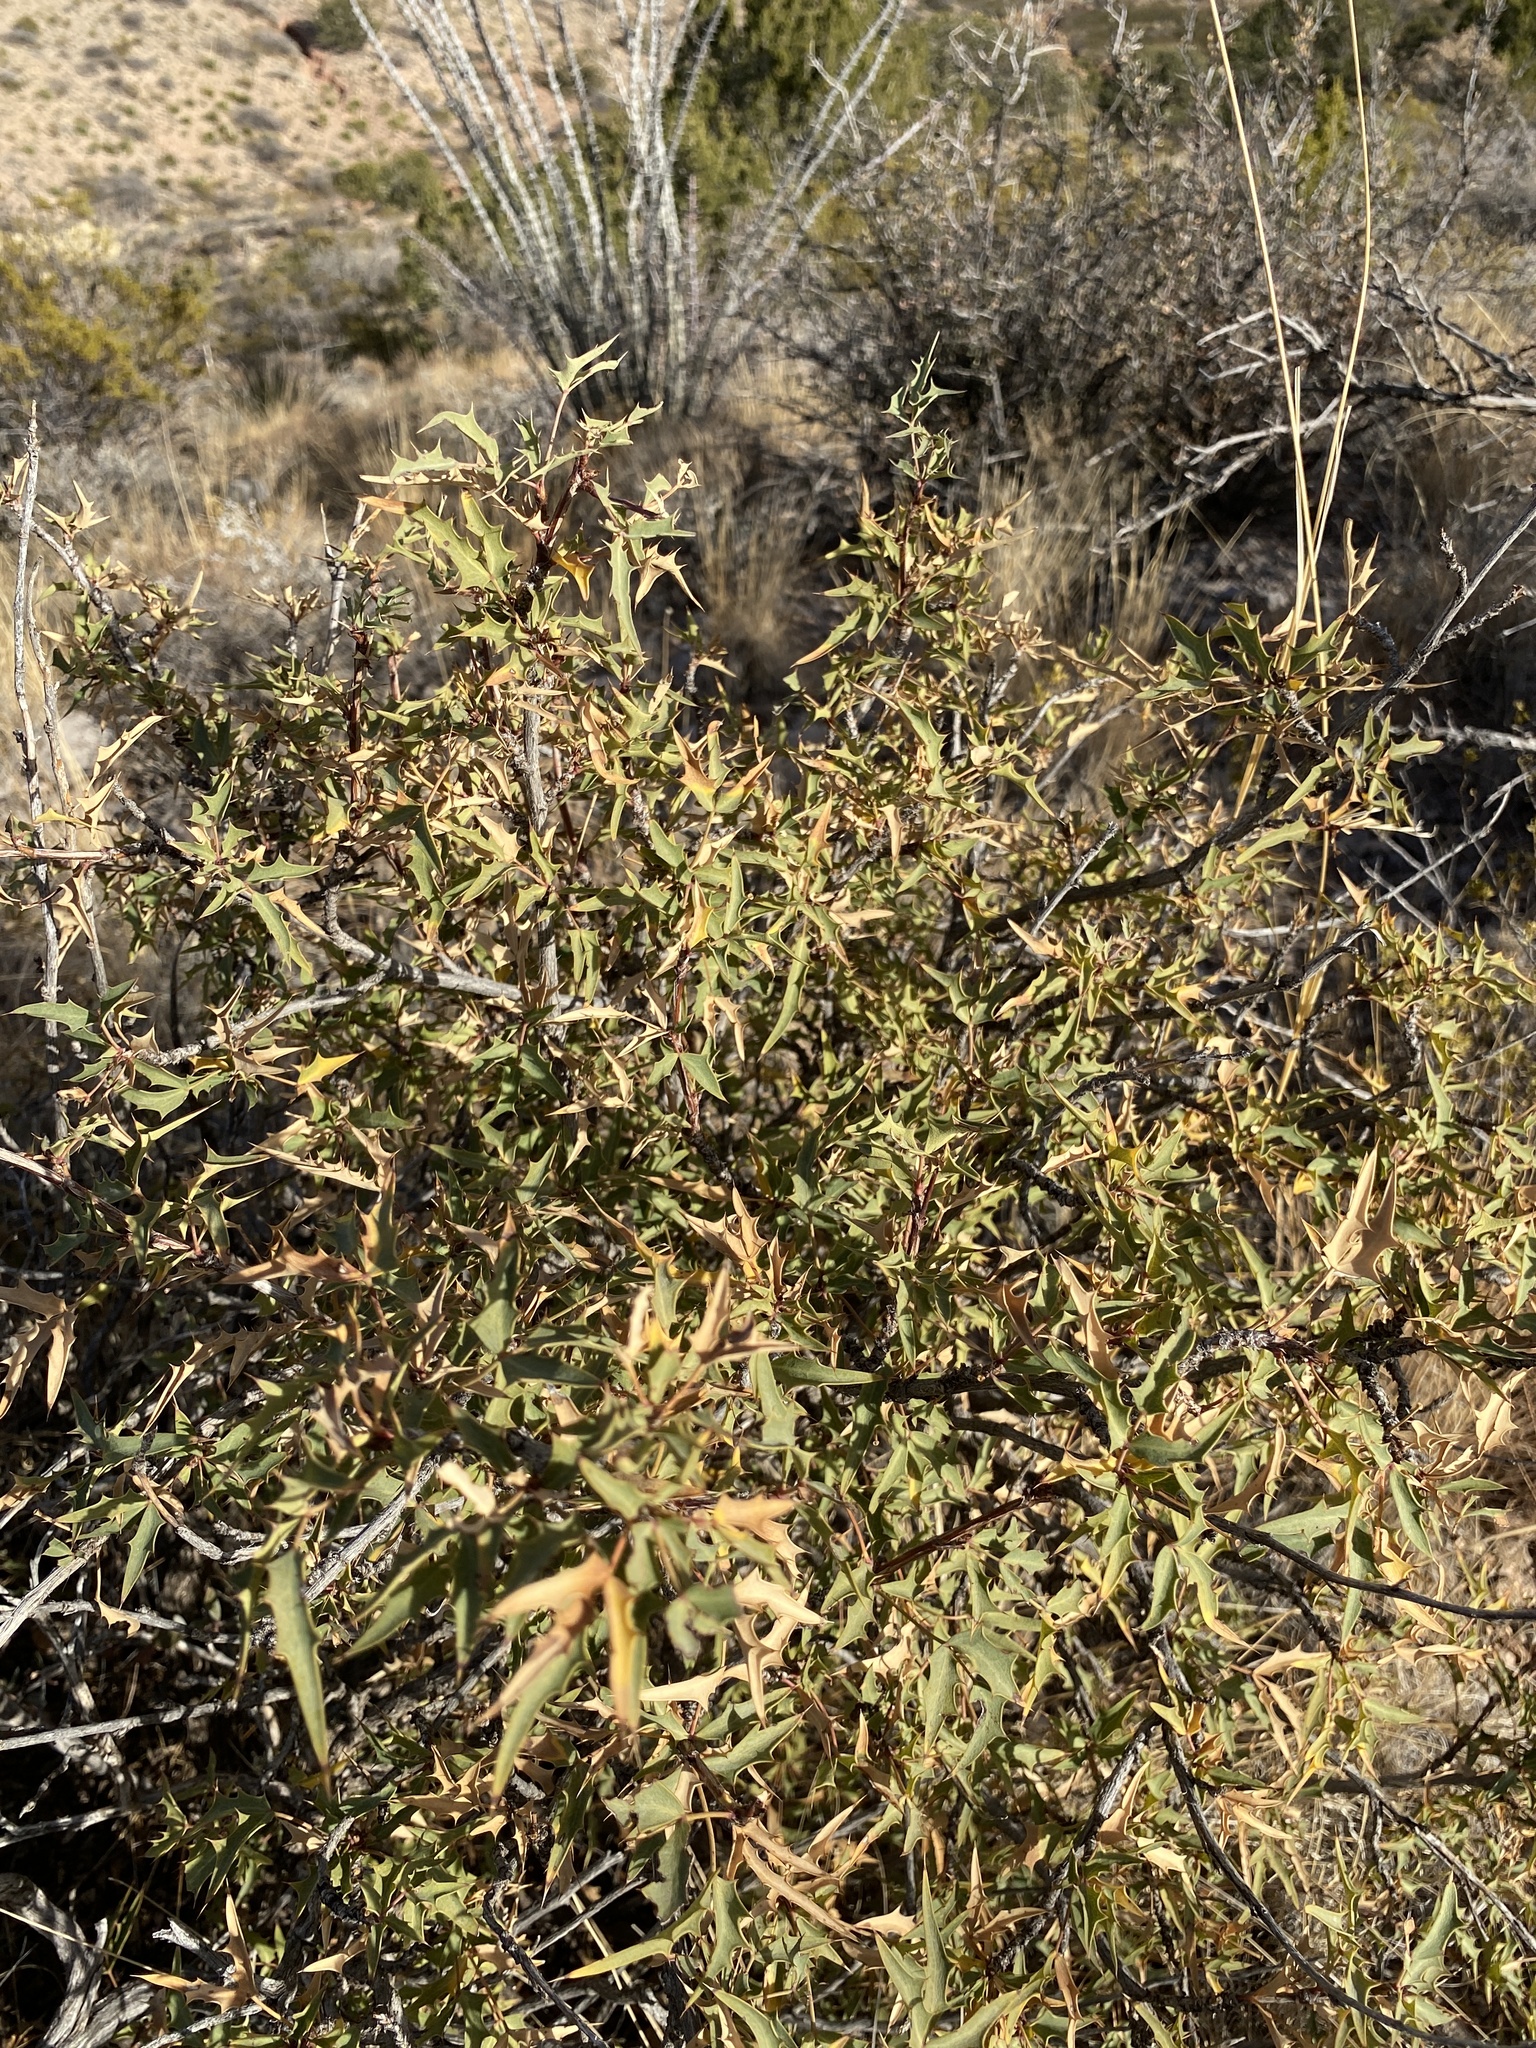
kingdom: Plantae
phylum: Tracheophyta
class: Magnoliopsida
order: Ranunculales
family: Berberidaceae
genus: Alloberberis
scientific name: Alloberberis haematocarpa
